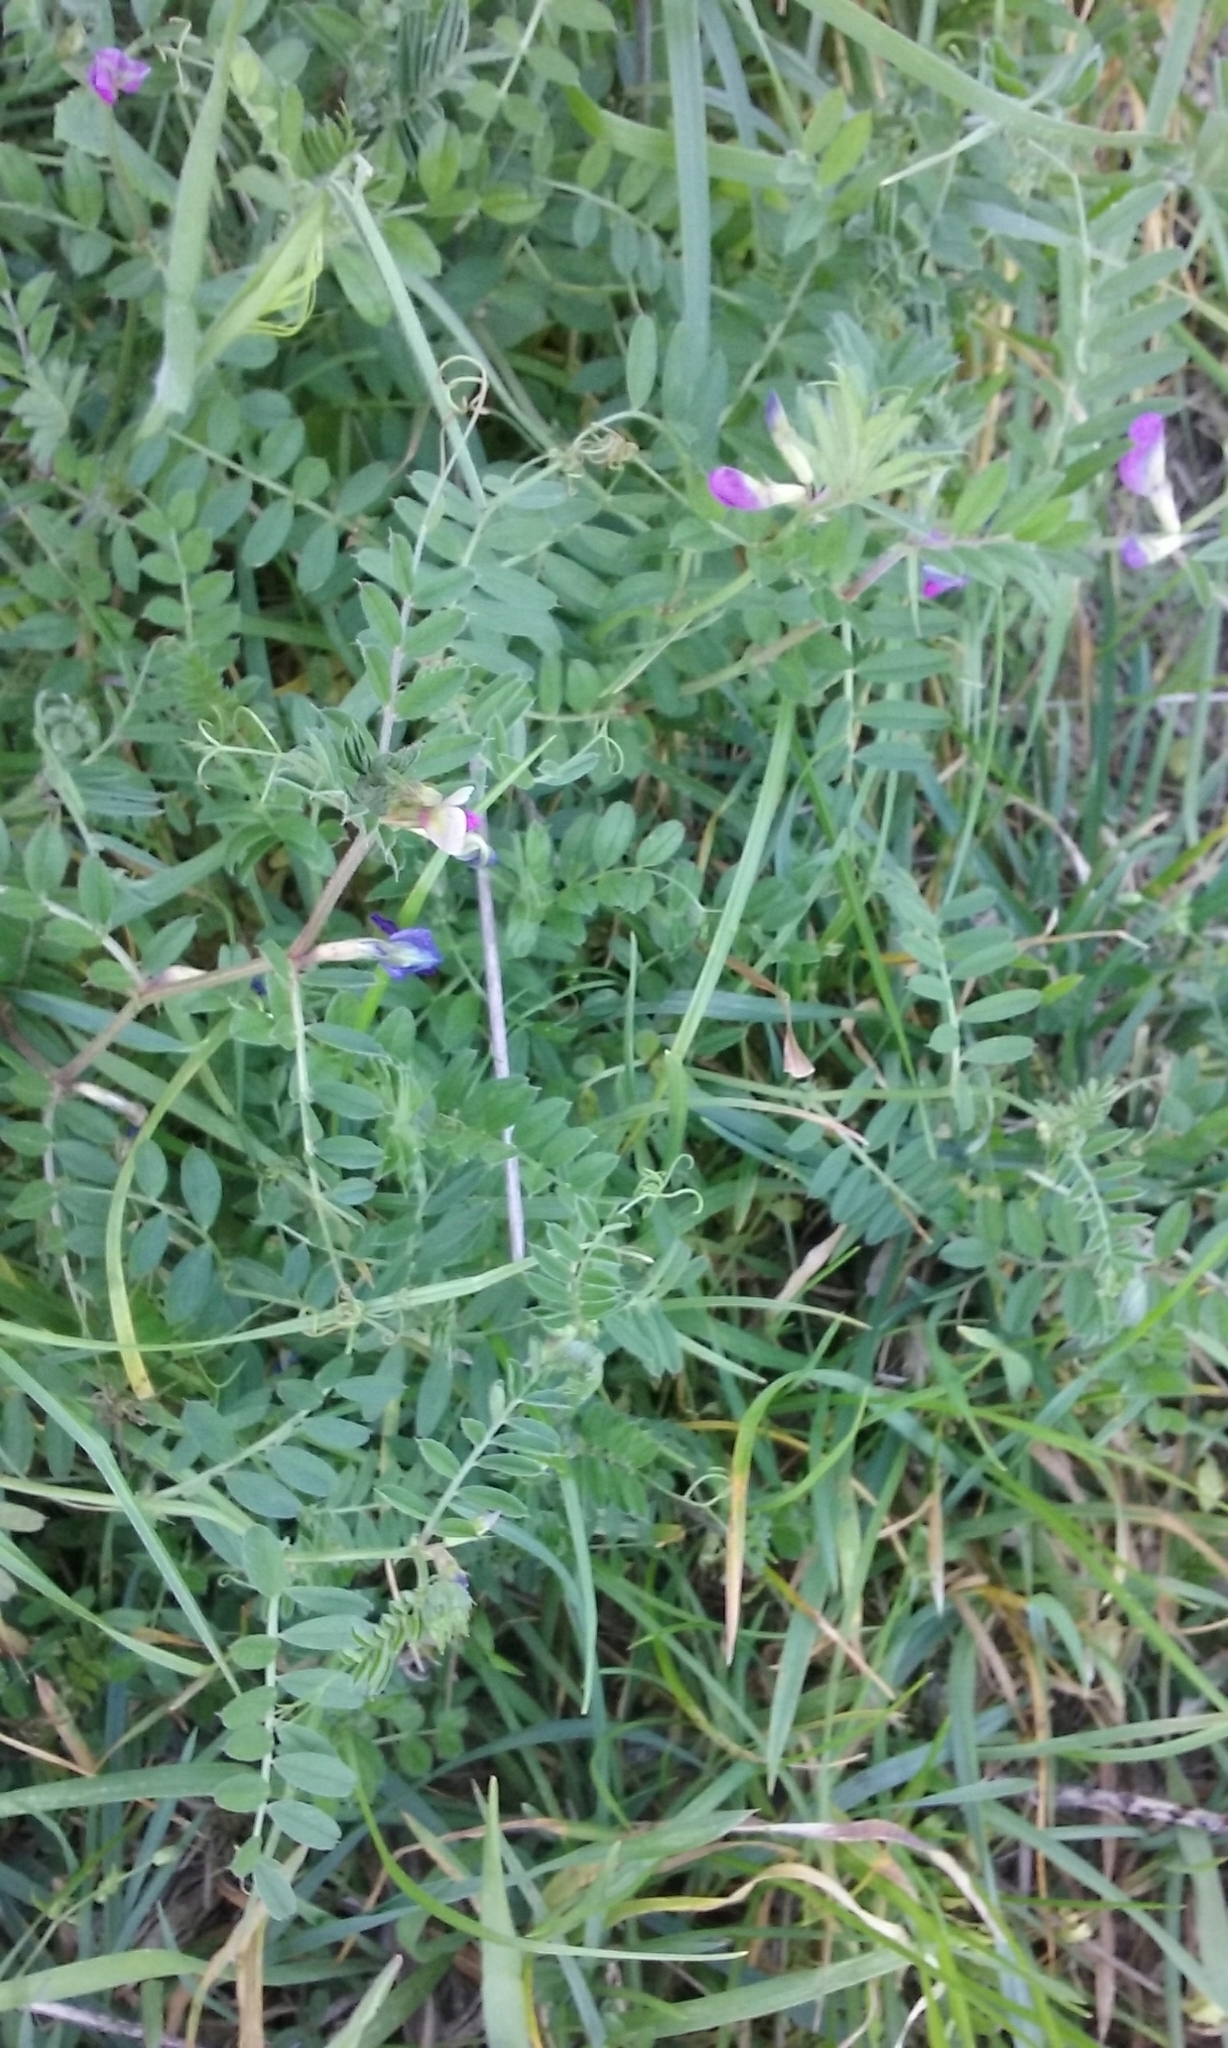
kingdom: Plantae
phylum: Tracheophyta
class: Magnoliopsida
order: Fabales
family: Fabaceae
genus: Vicia
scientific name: Vicia sativa
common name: Garden vetch
